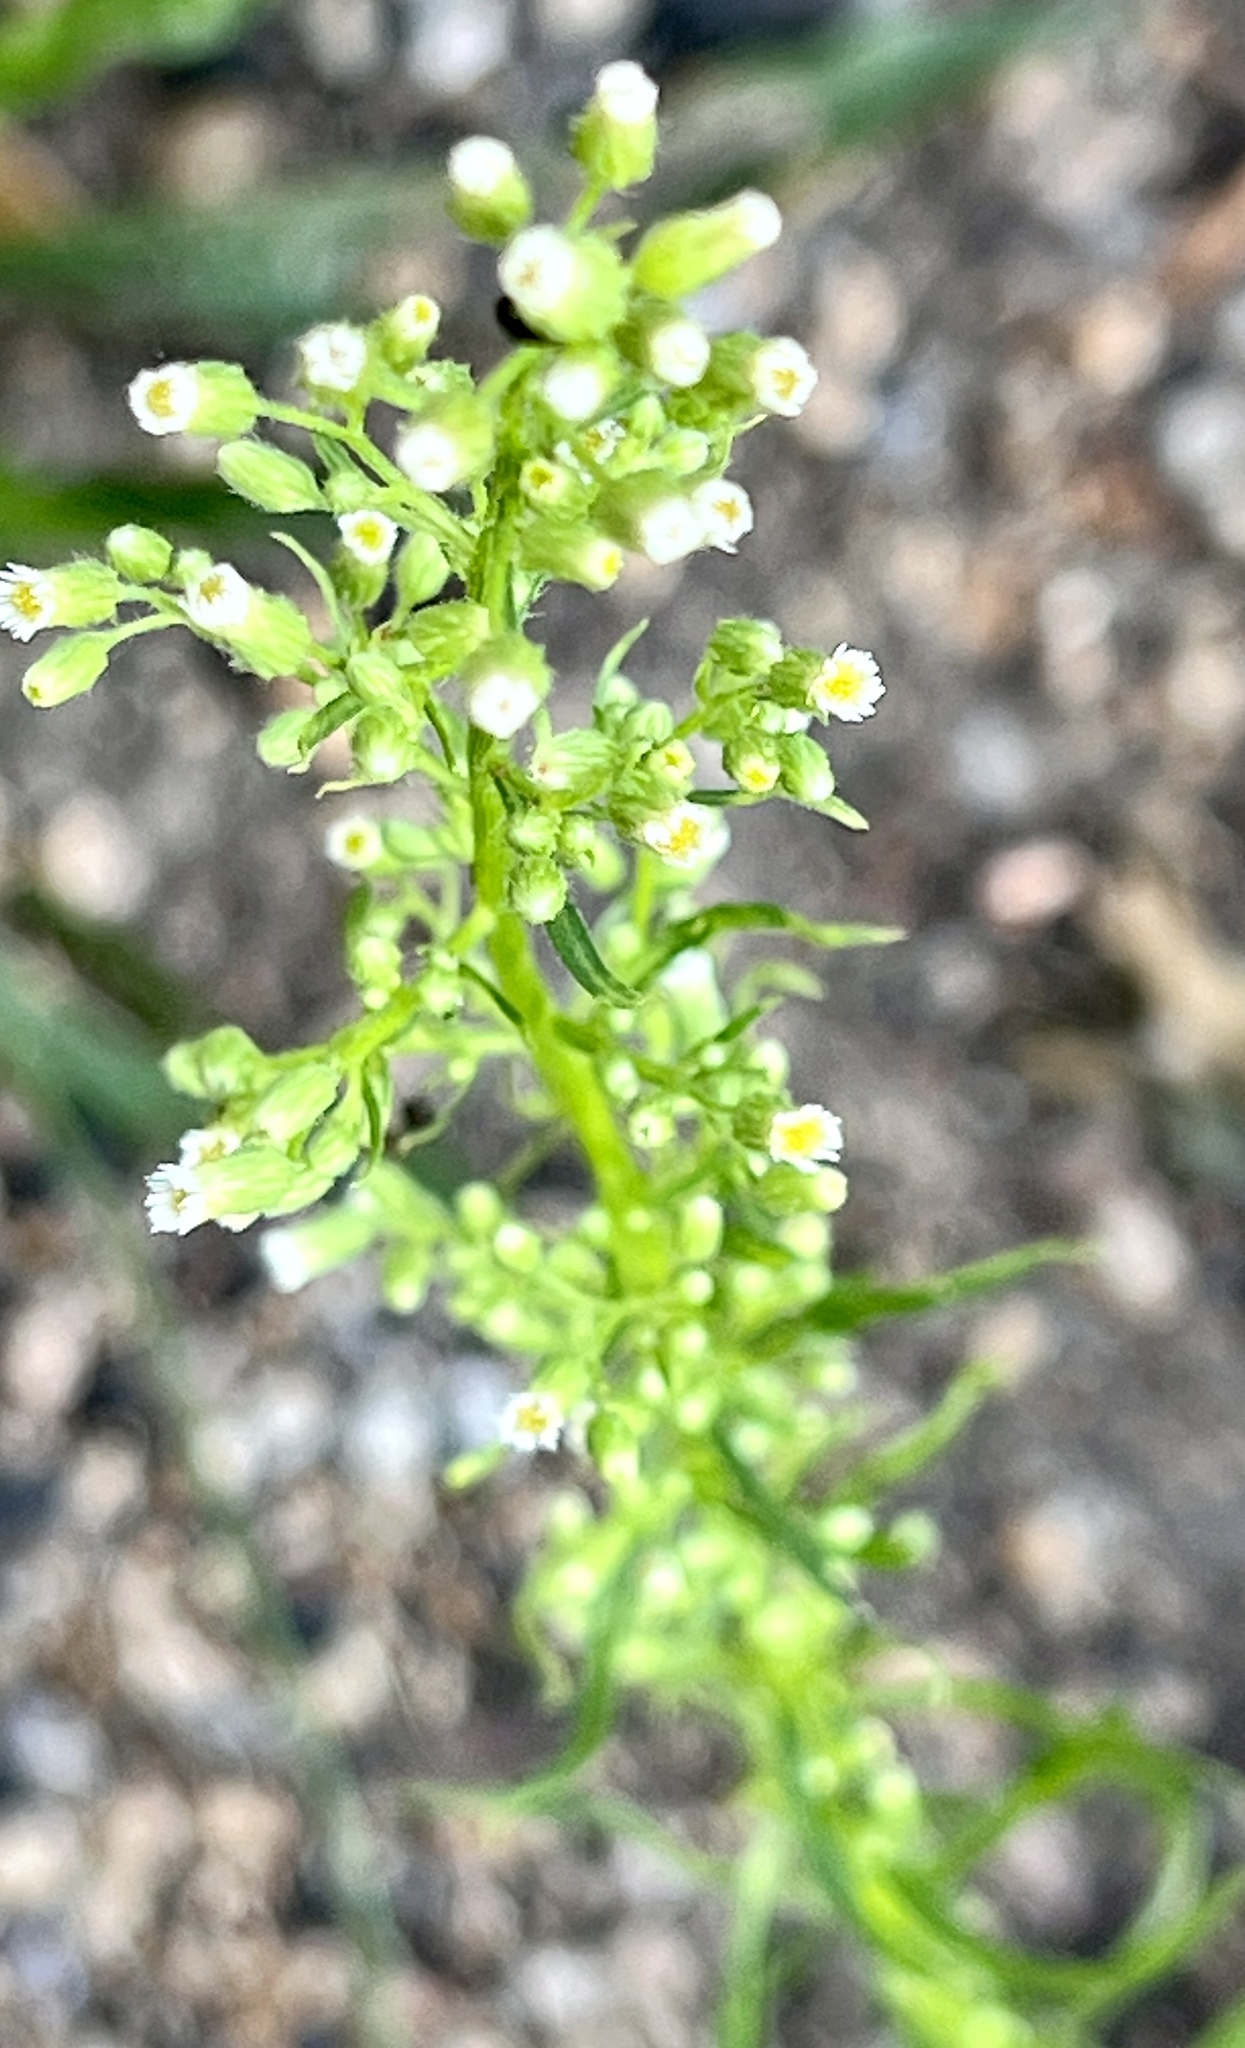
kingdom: Plantae
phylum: Tracheophyta
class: Magnoliopsida
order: Asterales
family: Asteraceae
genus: Erigeron
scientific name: Erigeron canadensis
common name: Canadian fleabane
